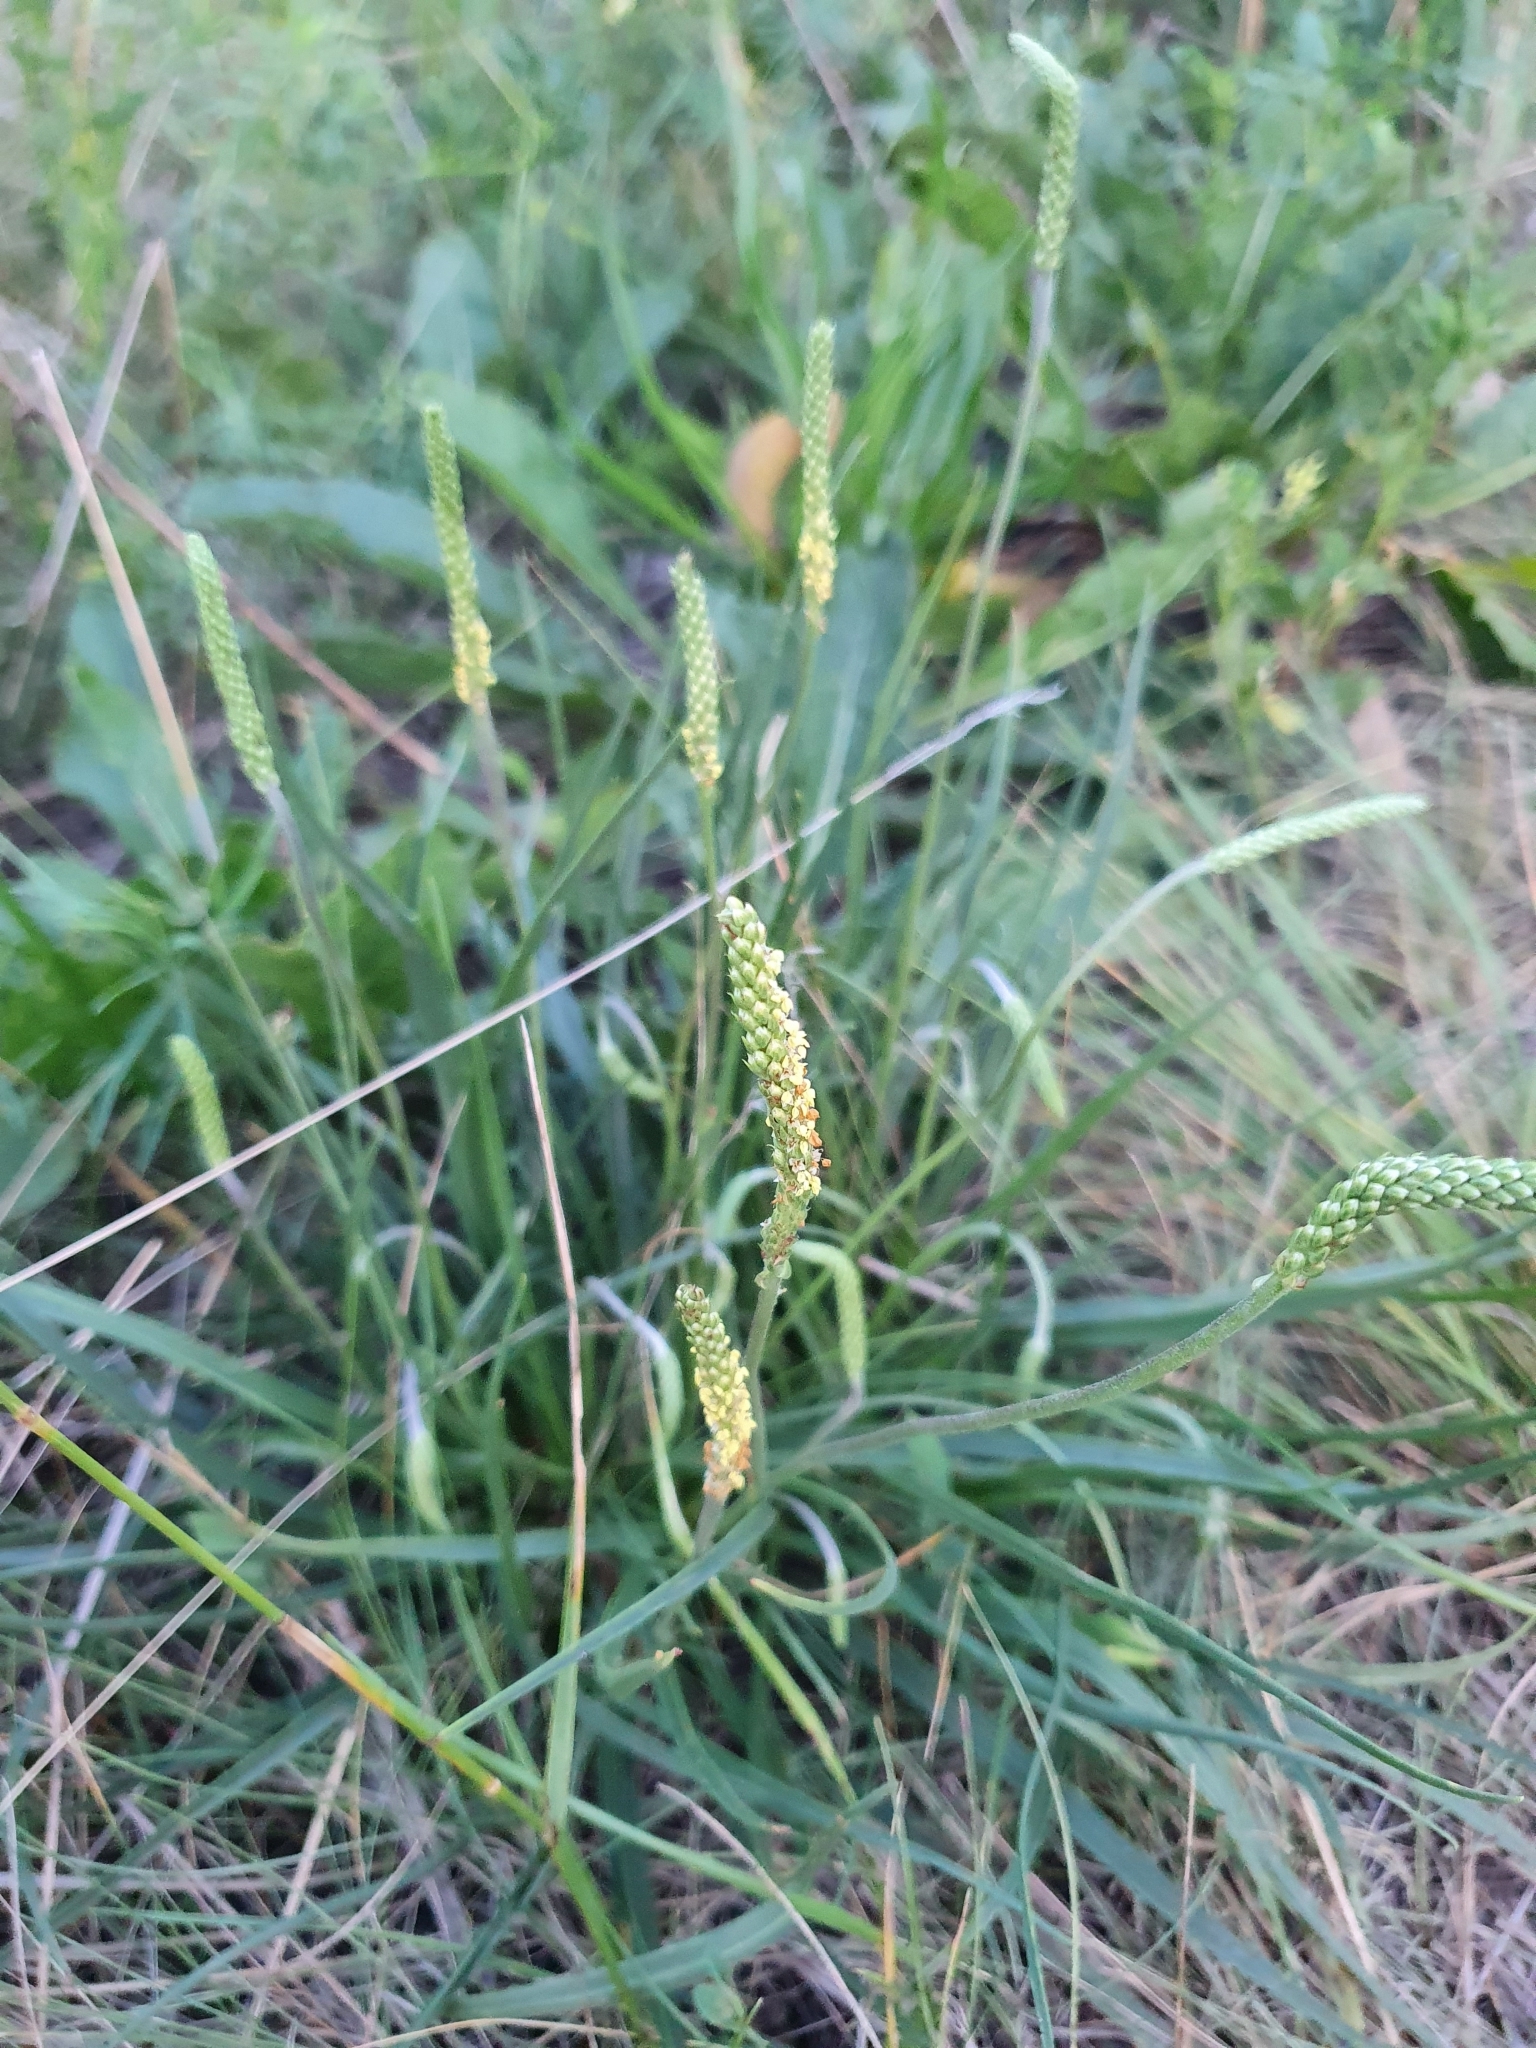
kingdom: Plantae
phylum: Tracheophyta
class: Magnoliopsida
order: Lamiales
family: Plantaginaceae
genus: Plantago
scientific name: Plantago salsa
